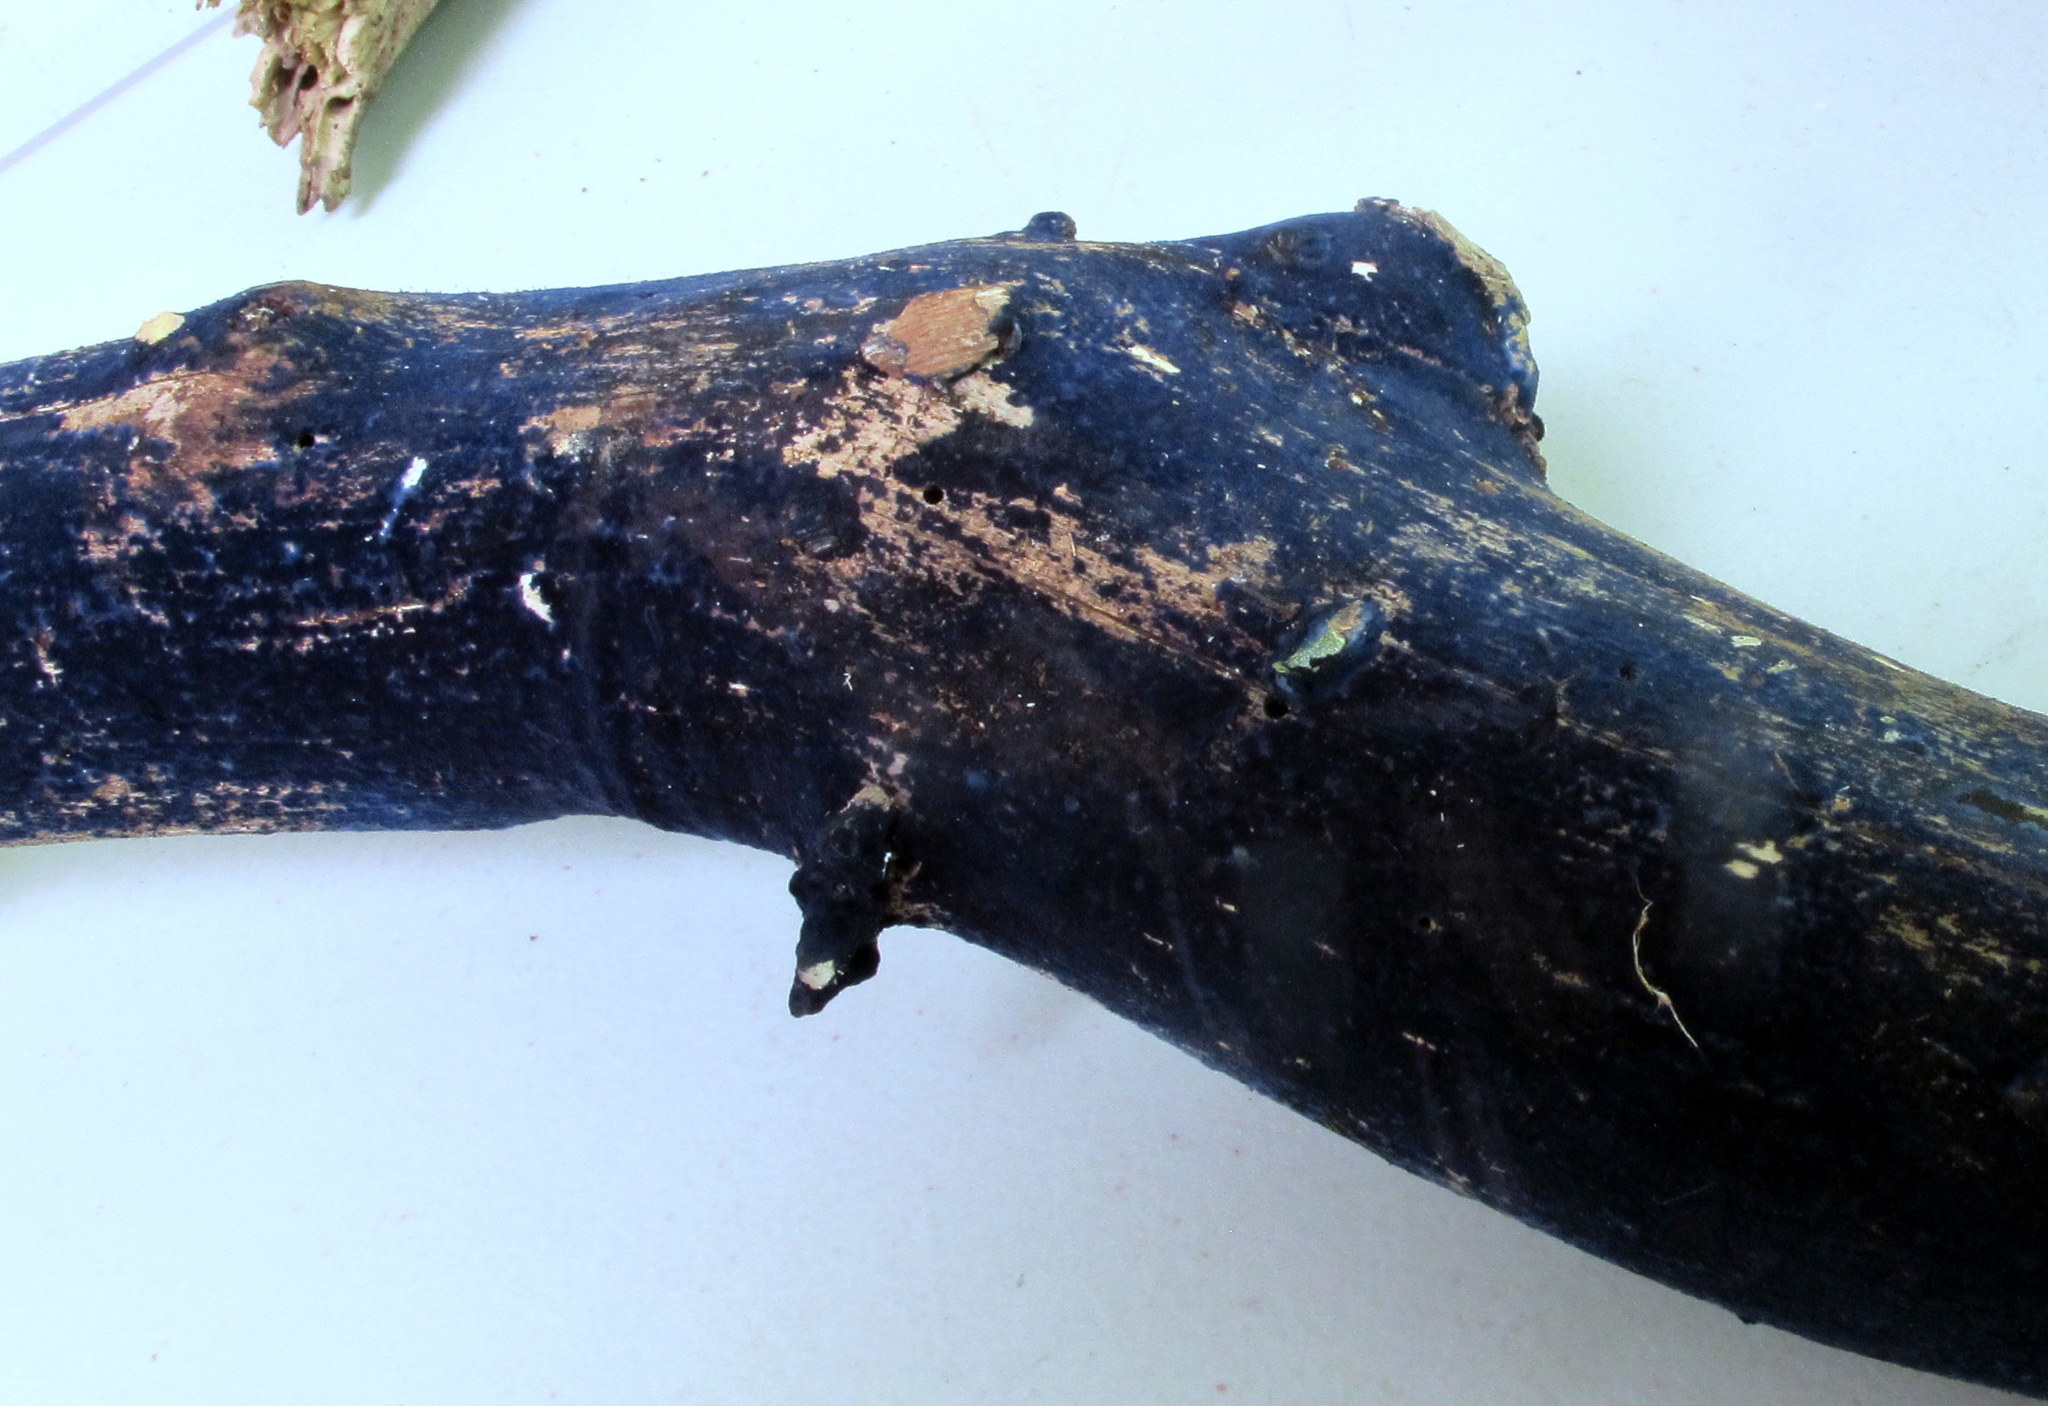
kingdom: Fungi
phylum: Basidiomycota
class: Agaricomycetes
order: Polyporales
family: Phanerochaetaceae
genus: Terana
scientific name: Terana coerulea
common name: Cobalt crust
